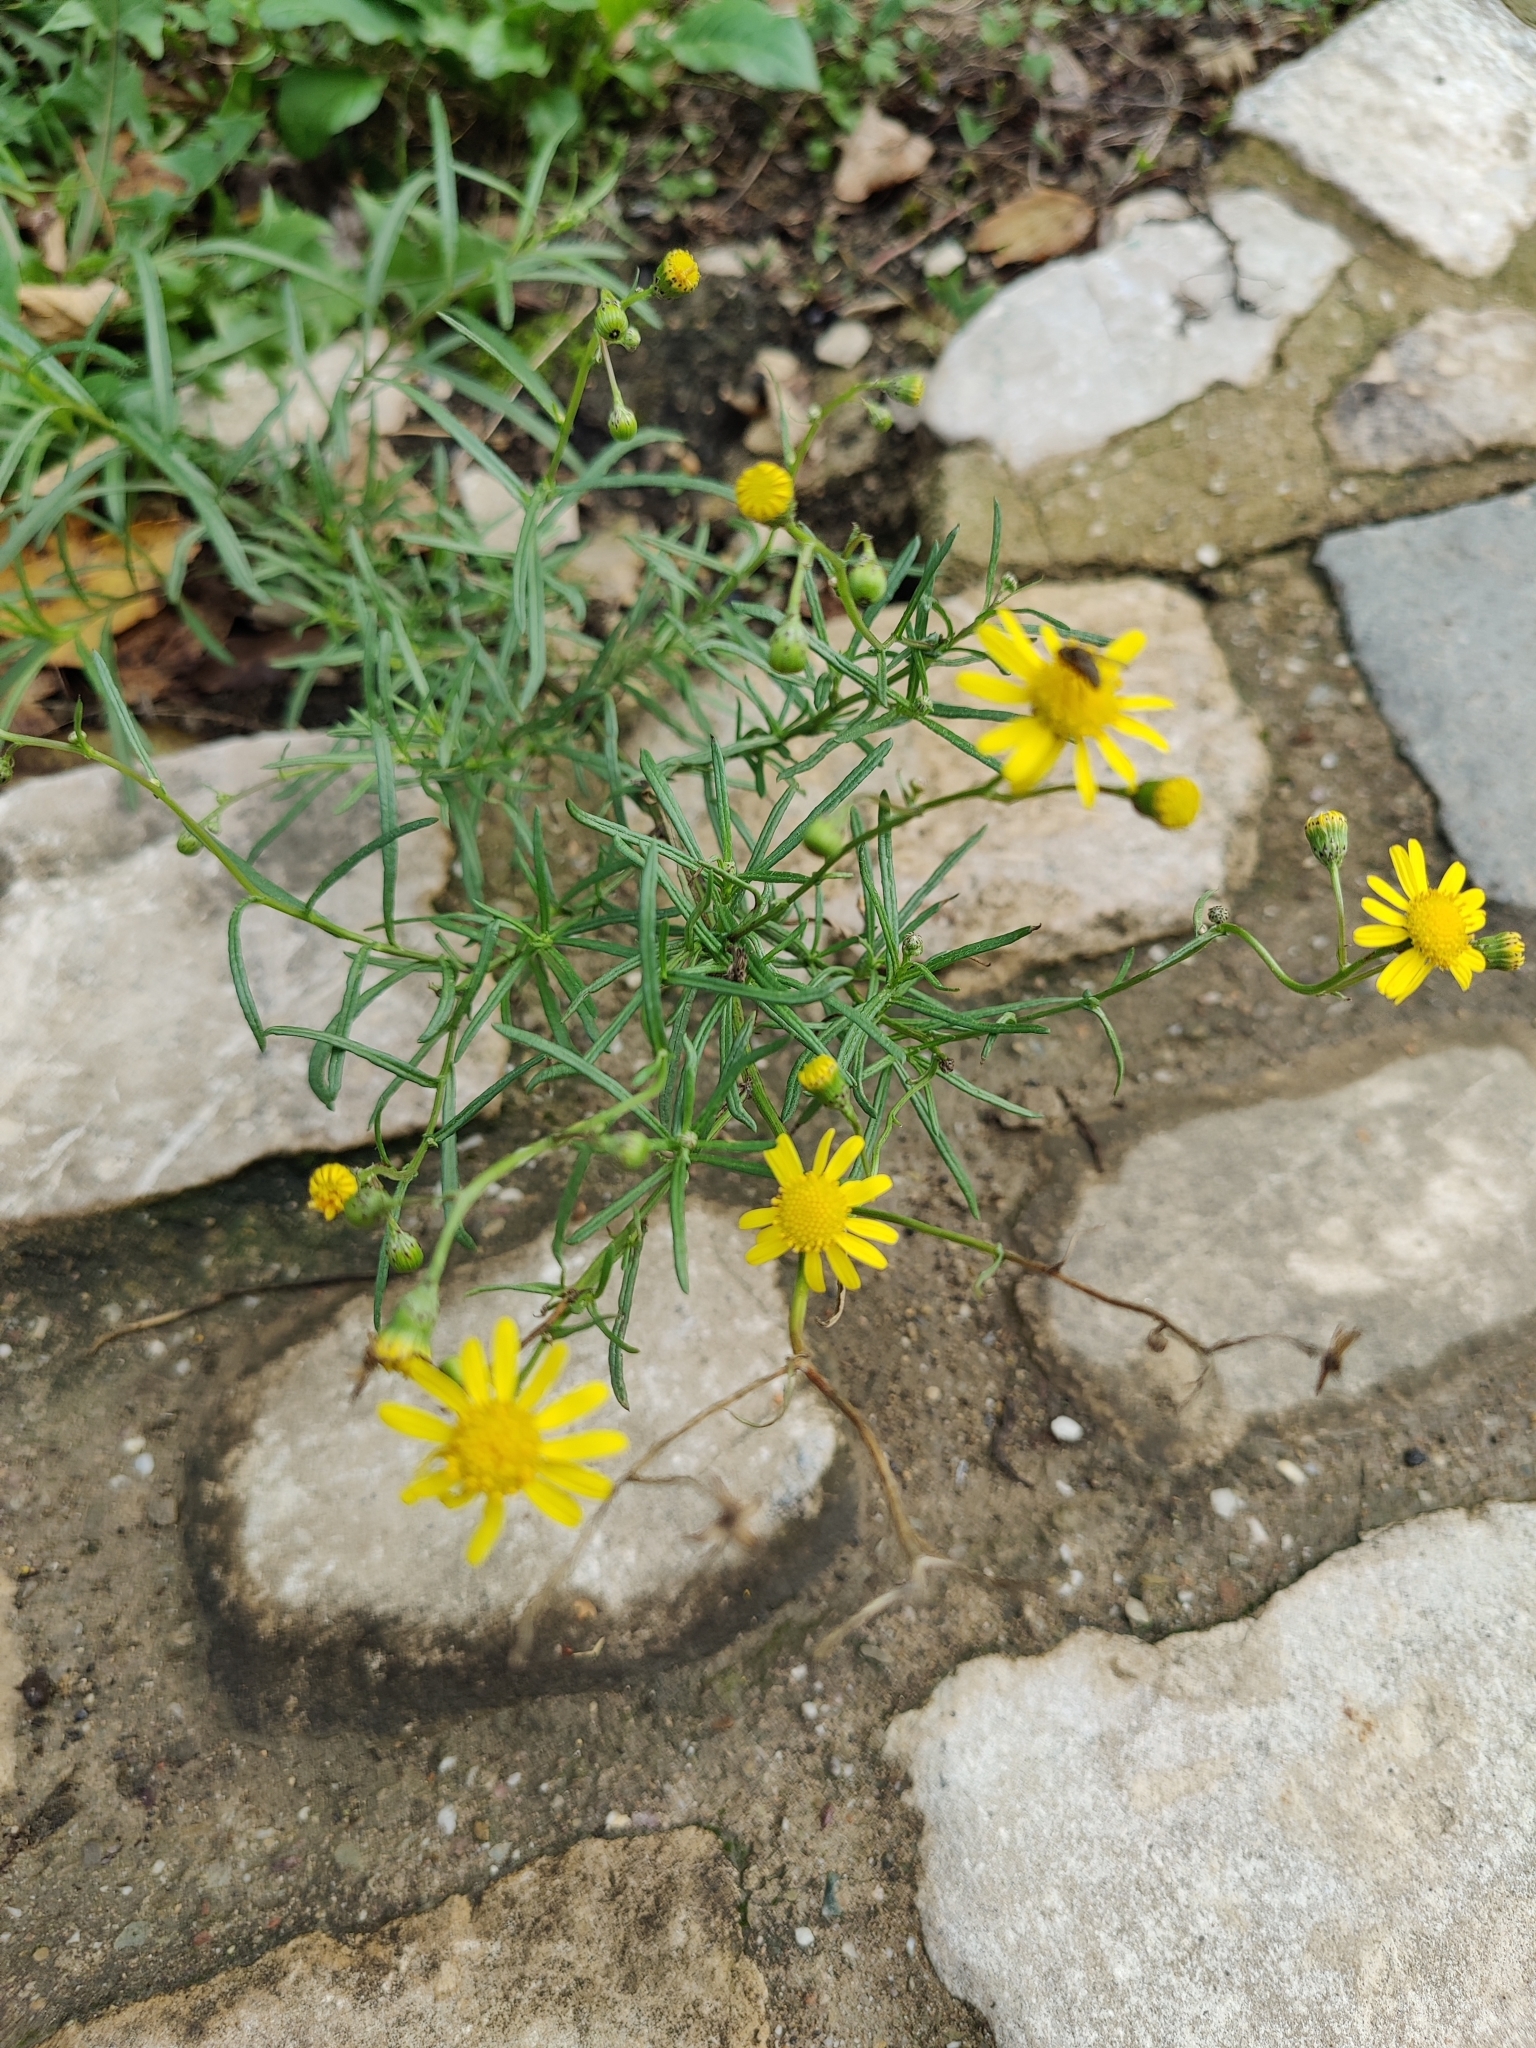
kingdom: Plantae
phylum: Tracheophyta
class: Magnoliopsida
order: Asterales
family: Asteraceae
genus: Senecio
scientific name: Senecio inaequidens
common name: Narrow-leaved ragwort
